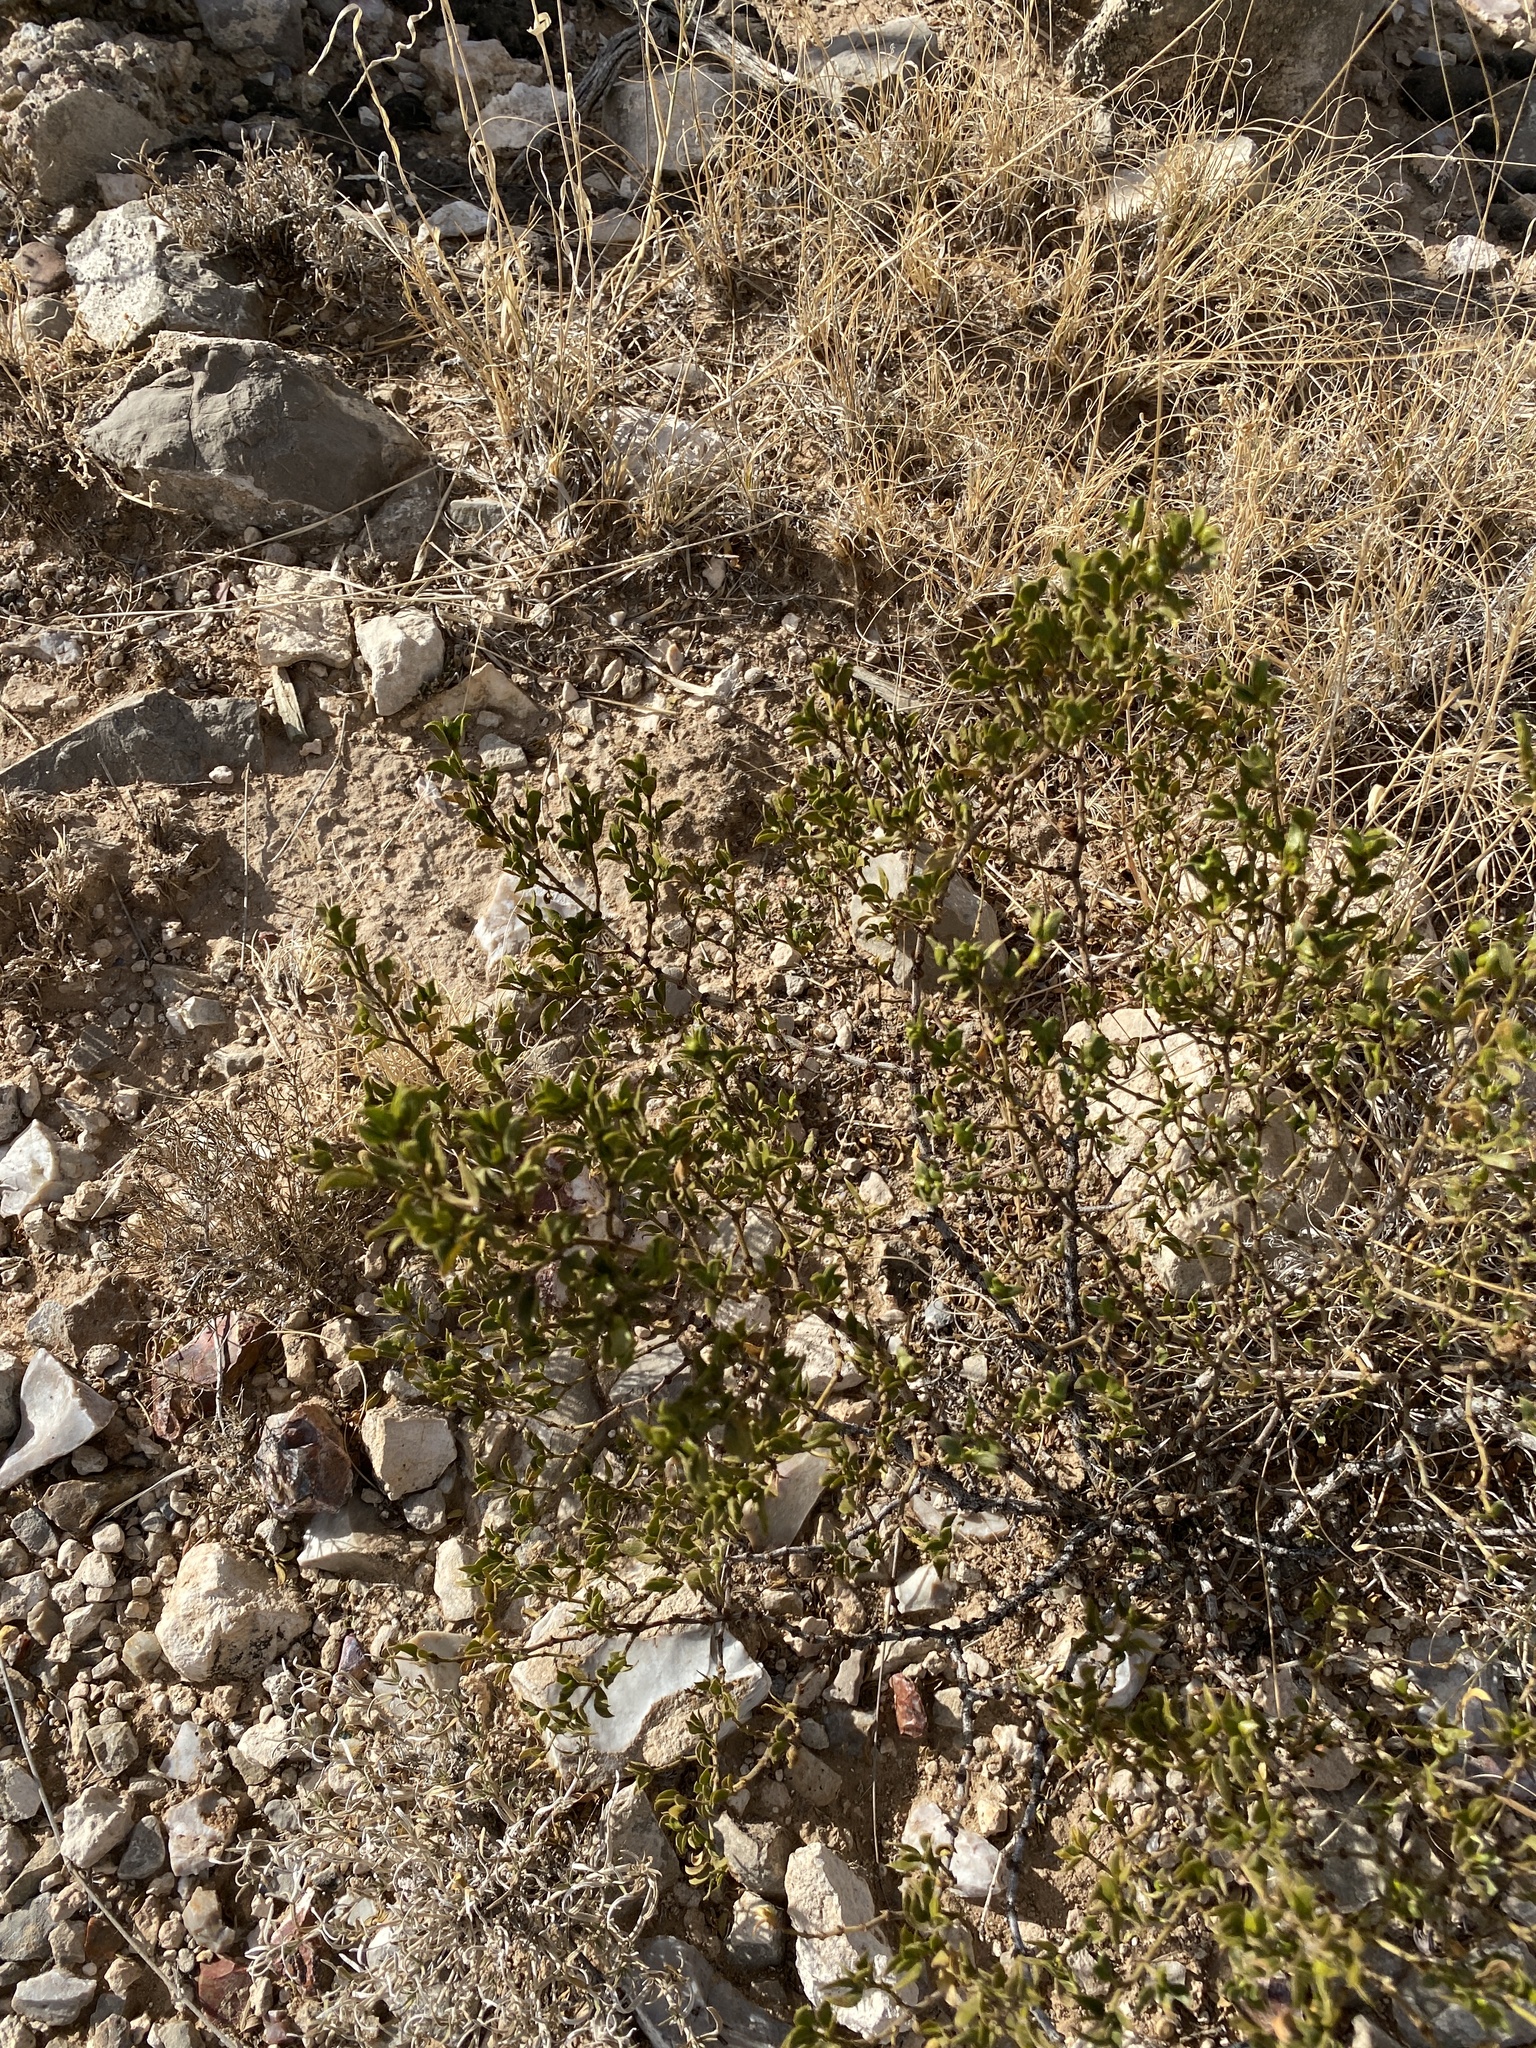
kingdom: Plantae
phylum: Tracheophyta
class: Magnoliopsida
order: Zygophyllales
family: Zygophyllaceae
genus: Larrea
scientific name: Larrea tridentata
